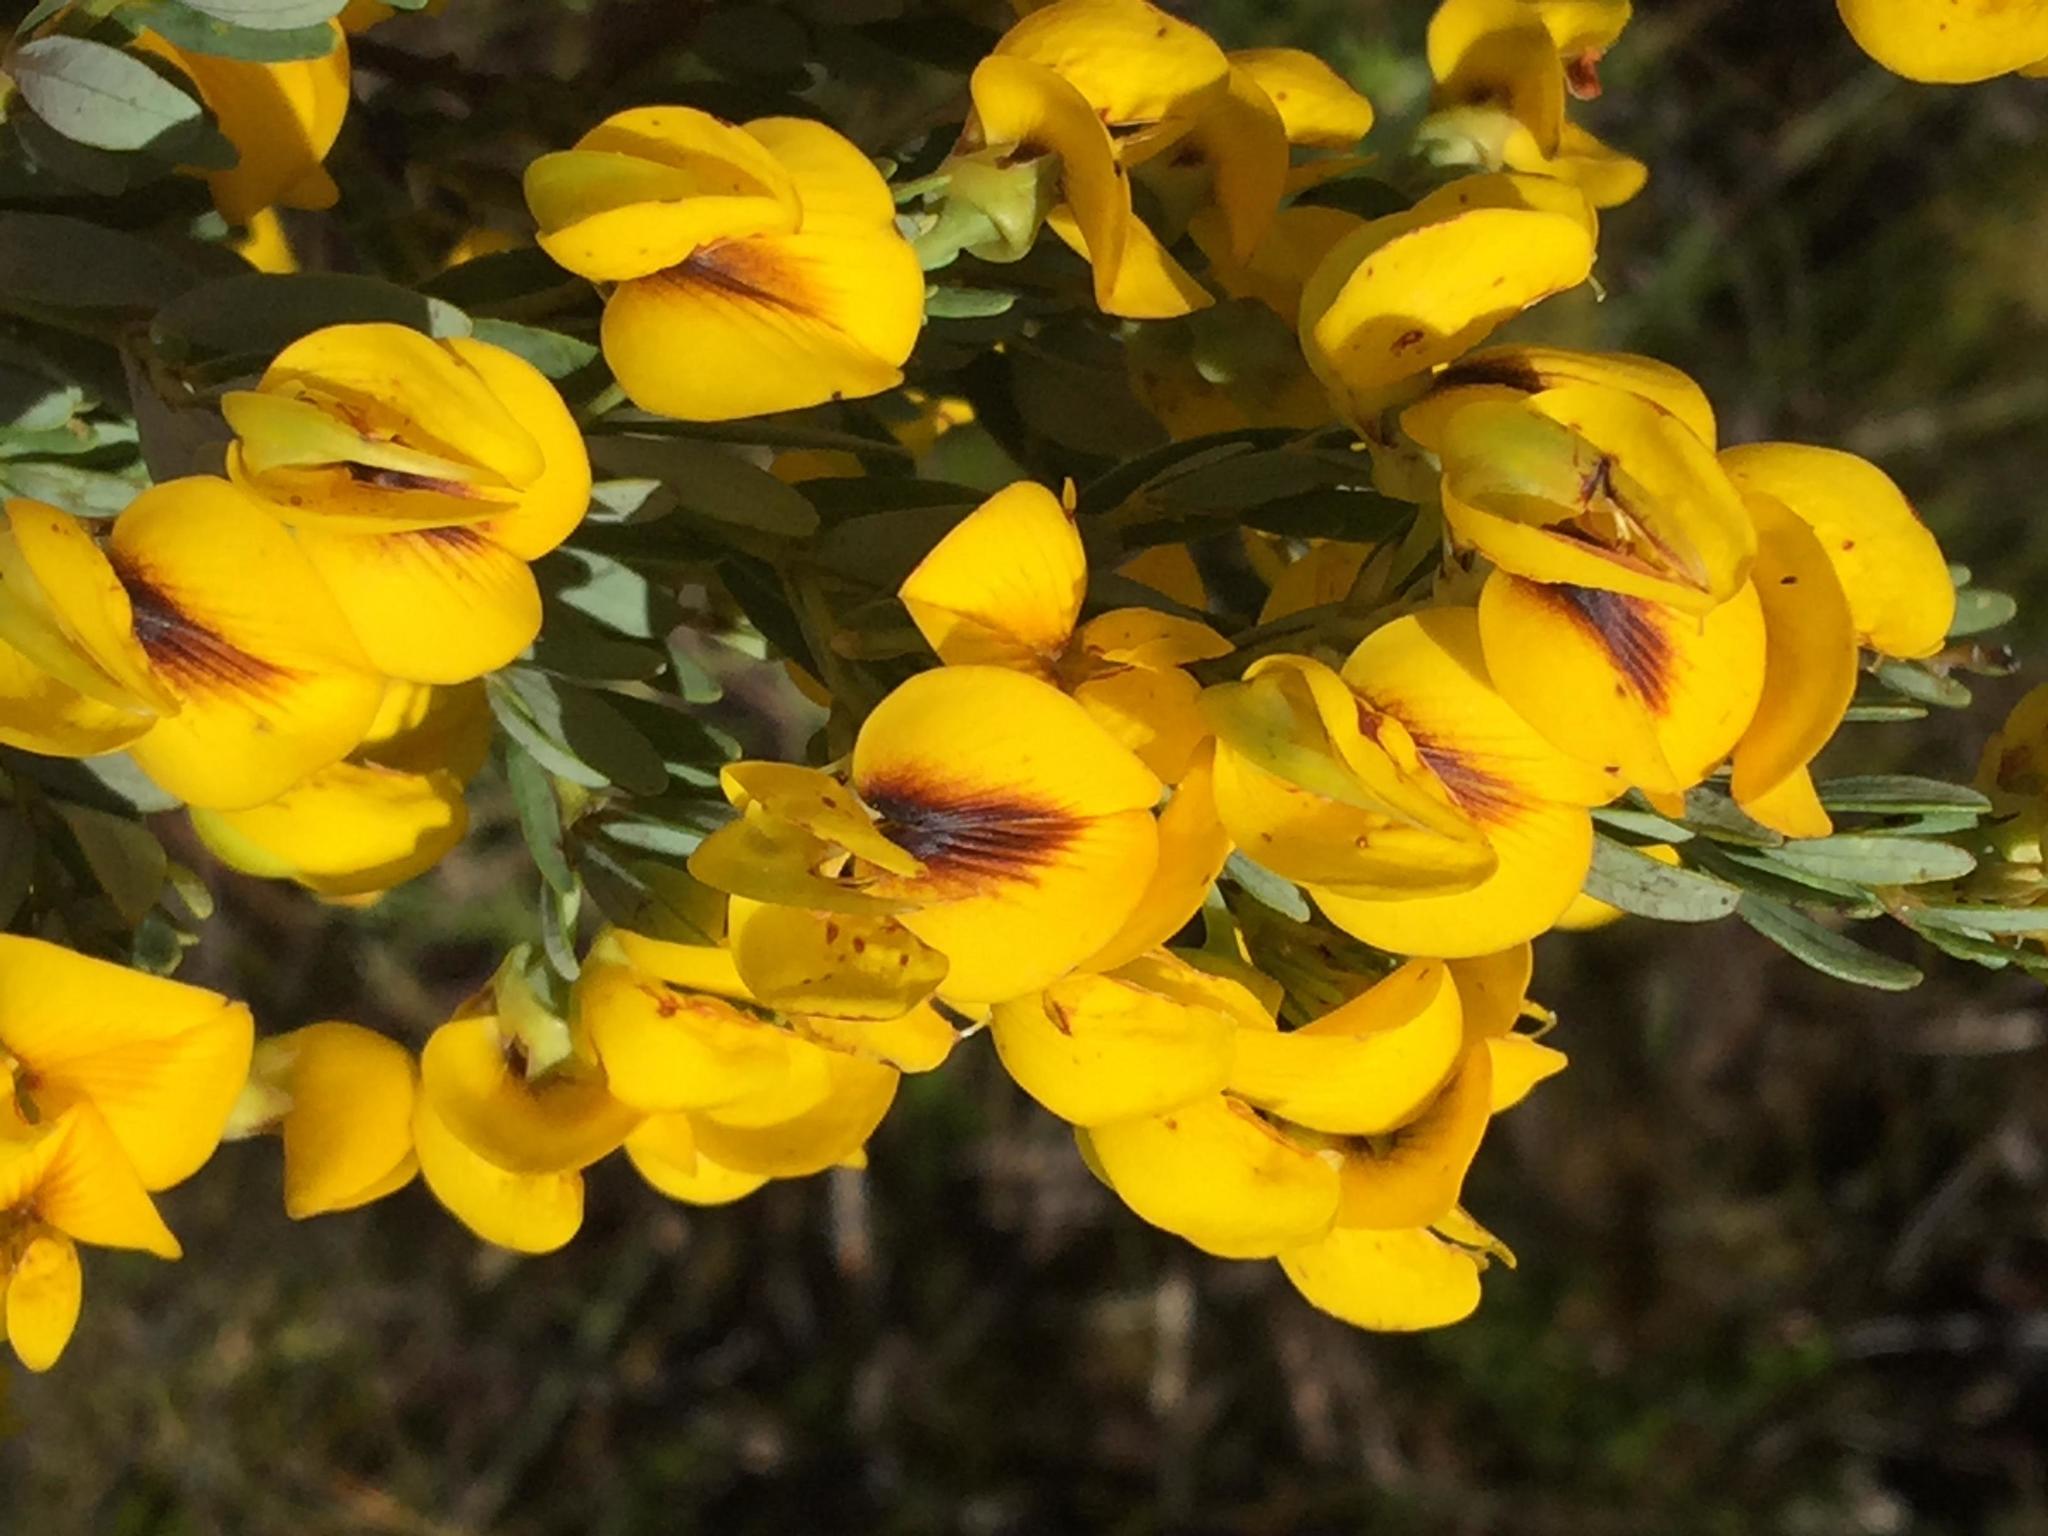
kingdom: Plantae
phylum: Tracheophyta
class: Magnoliopsida
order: Fabales
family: Fabaceae
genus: Cyclopia
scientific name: Cyclopia subternata
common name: Honeybush tea
